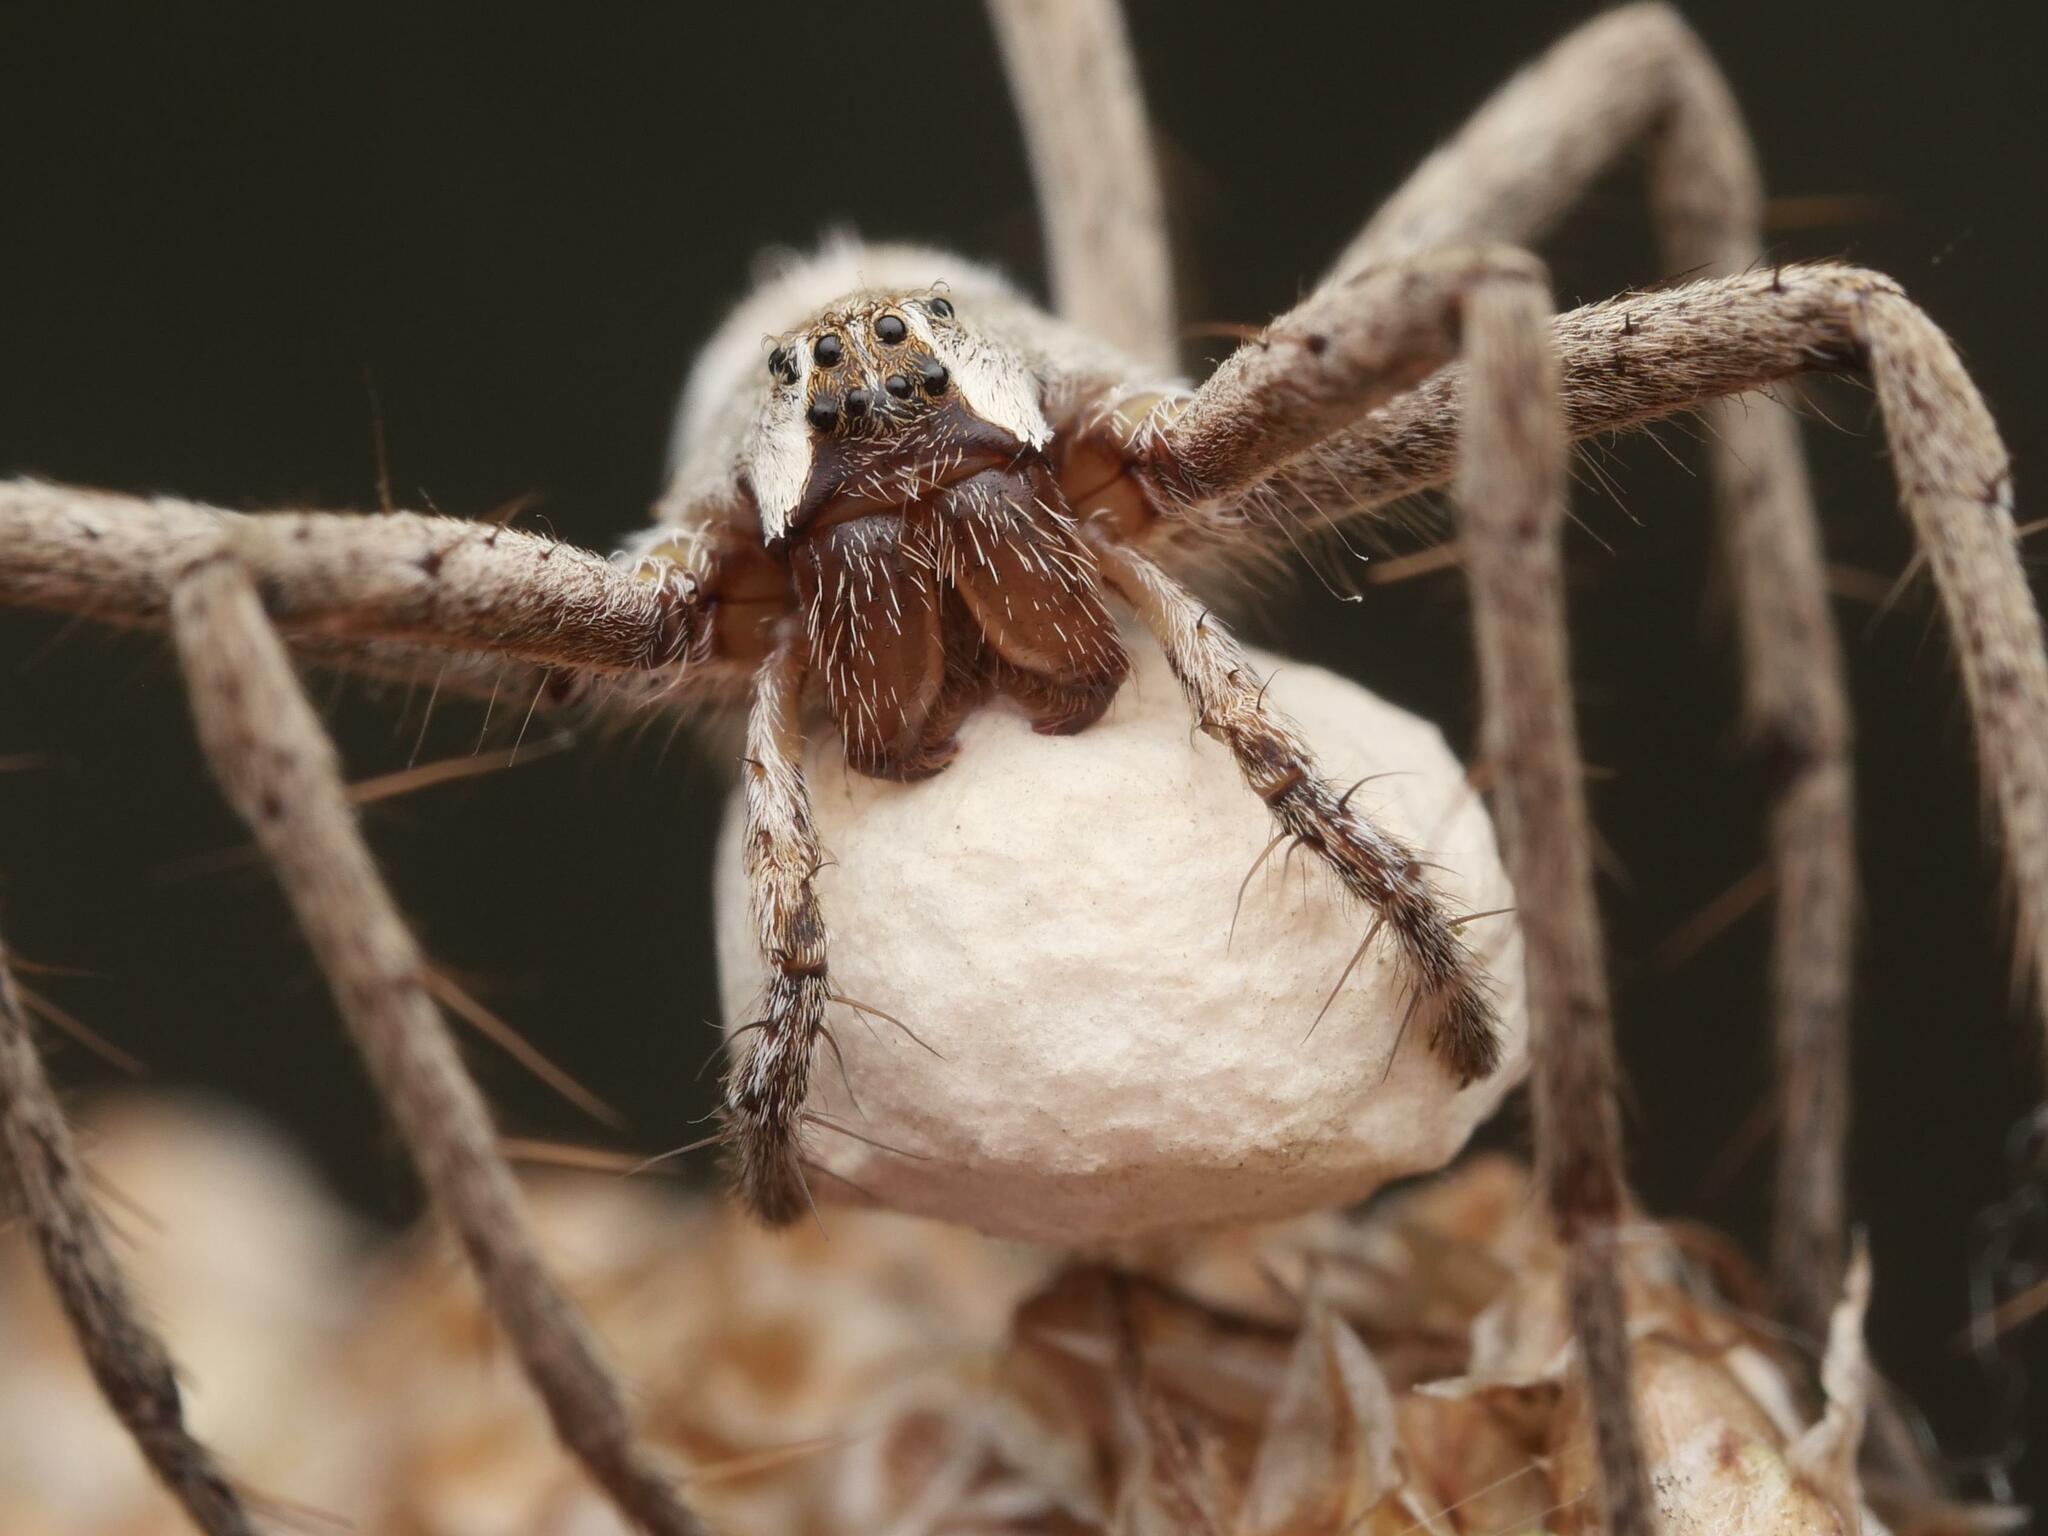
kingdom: Animalia
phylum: Arthropoda
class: Arachnida
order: Araneae
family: Pisauridae
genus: Pisaura
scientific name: Pisaura mirabilis
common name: Tent spider
